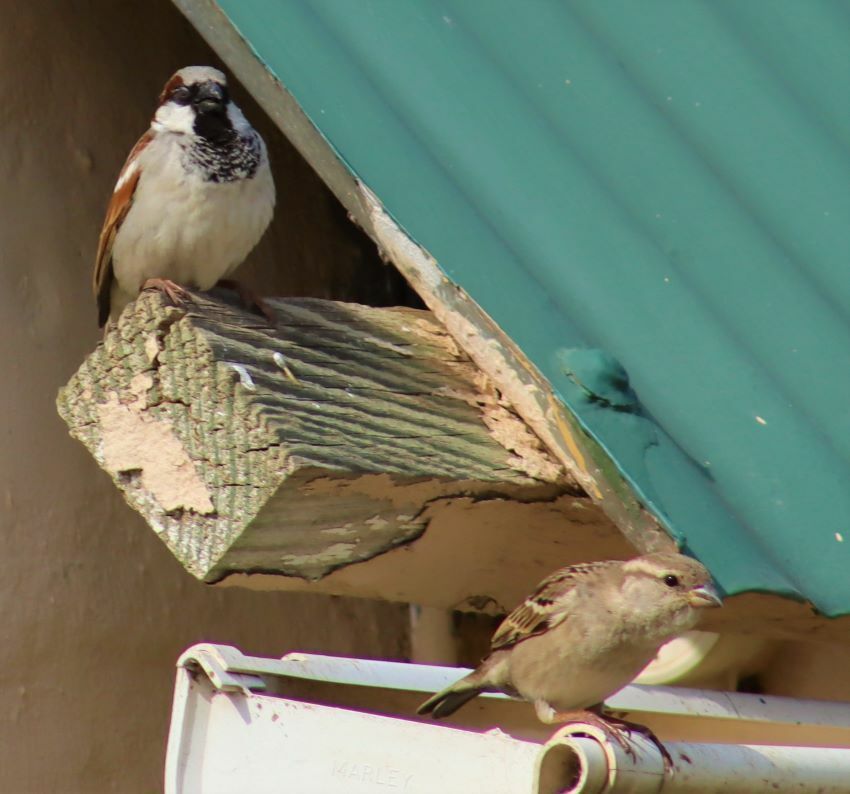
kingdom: Animalia
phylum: Chordata
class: Aves
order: Passeriformes
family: Passeridae
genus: Passer
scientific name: Passer domesticus
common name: House sparrow
